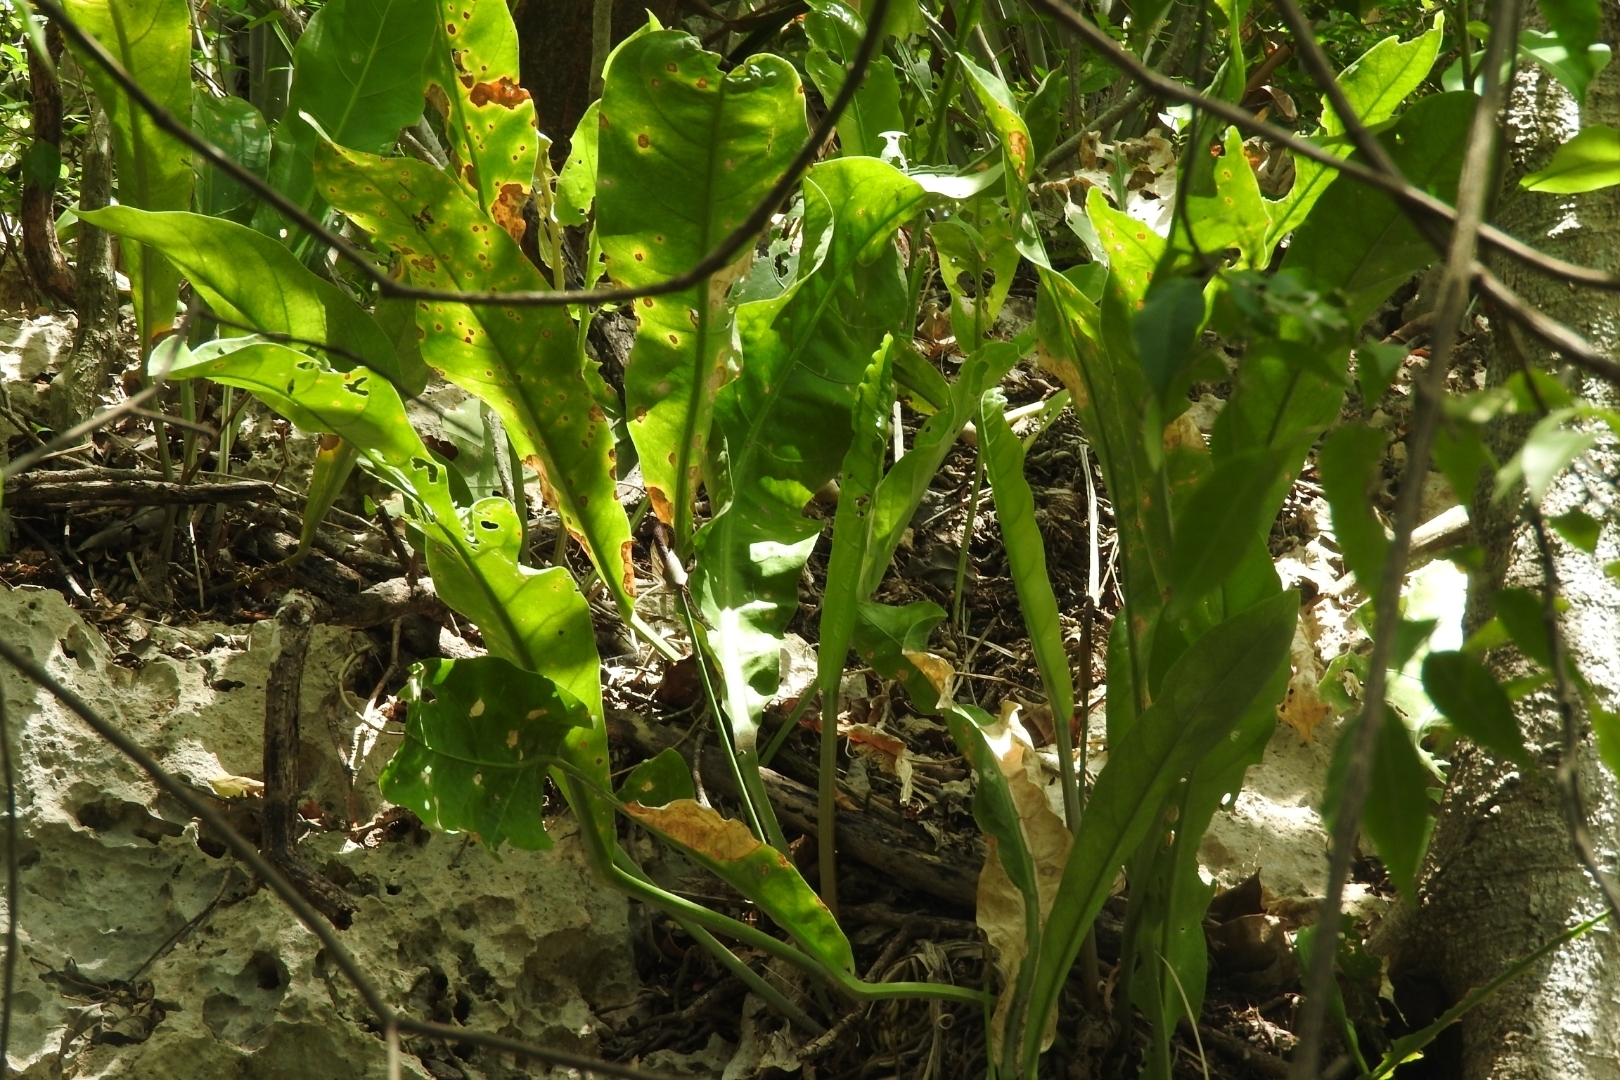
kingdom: Plantae
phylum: Tracheophyta
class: Liliopsida
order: Alismatales
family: Araceae
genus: Anthurium
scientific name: Anthurium schlechtendalii
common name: Laceleaf
